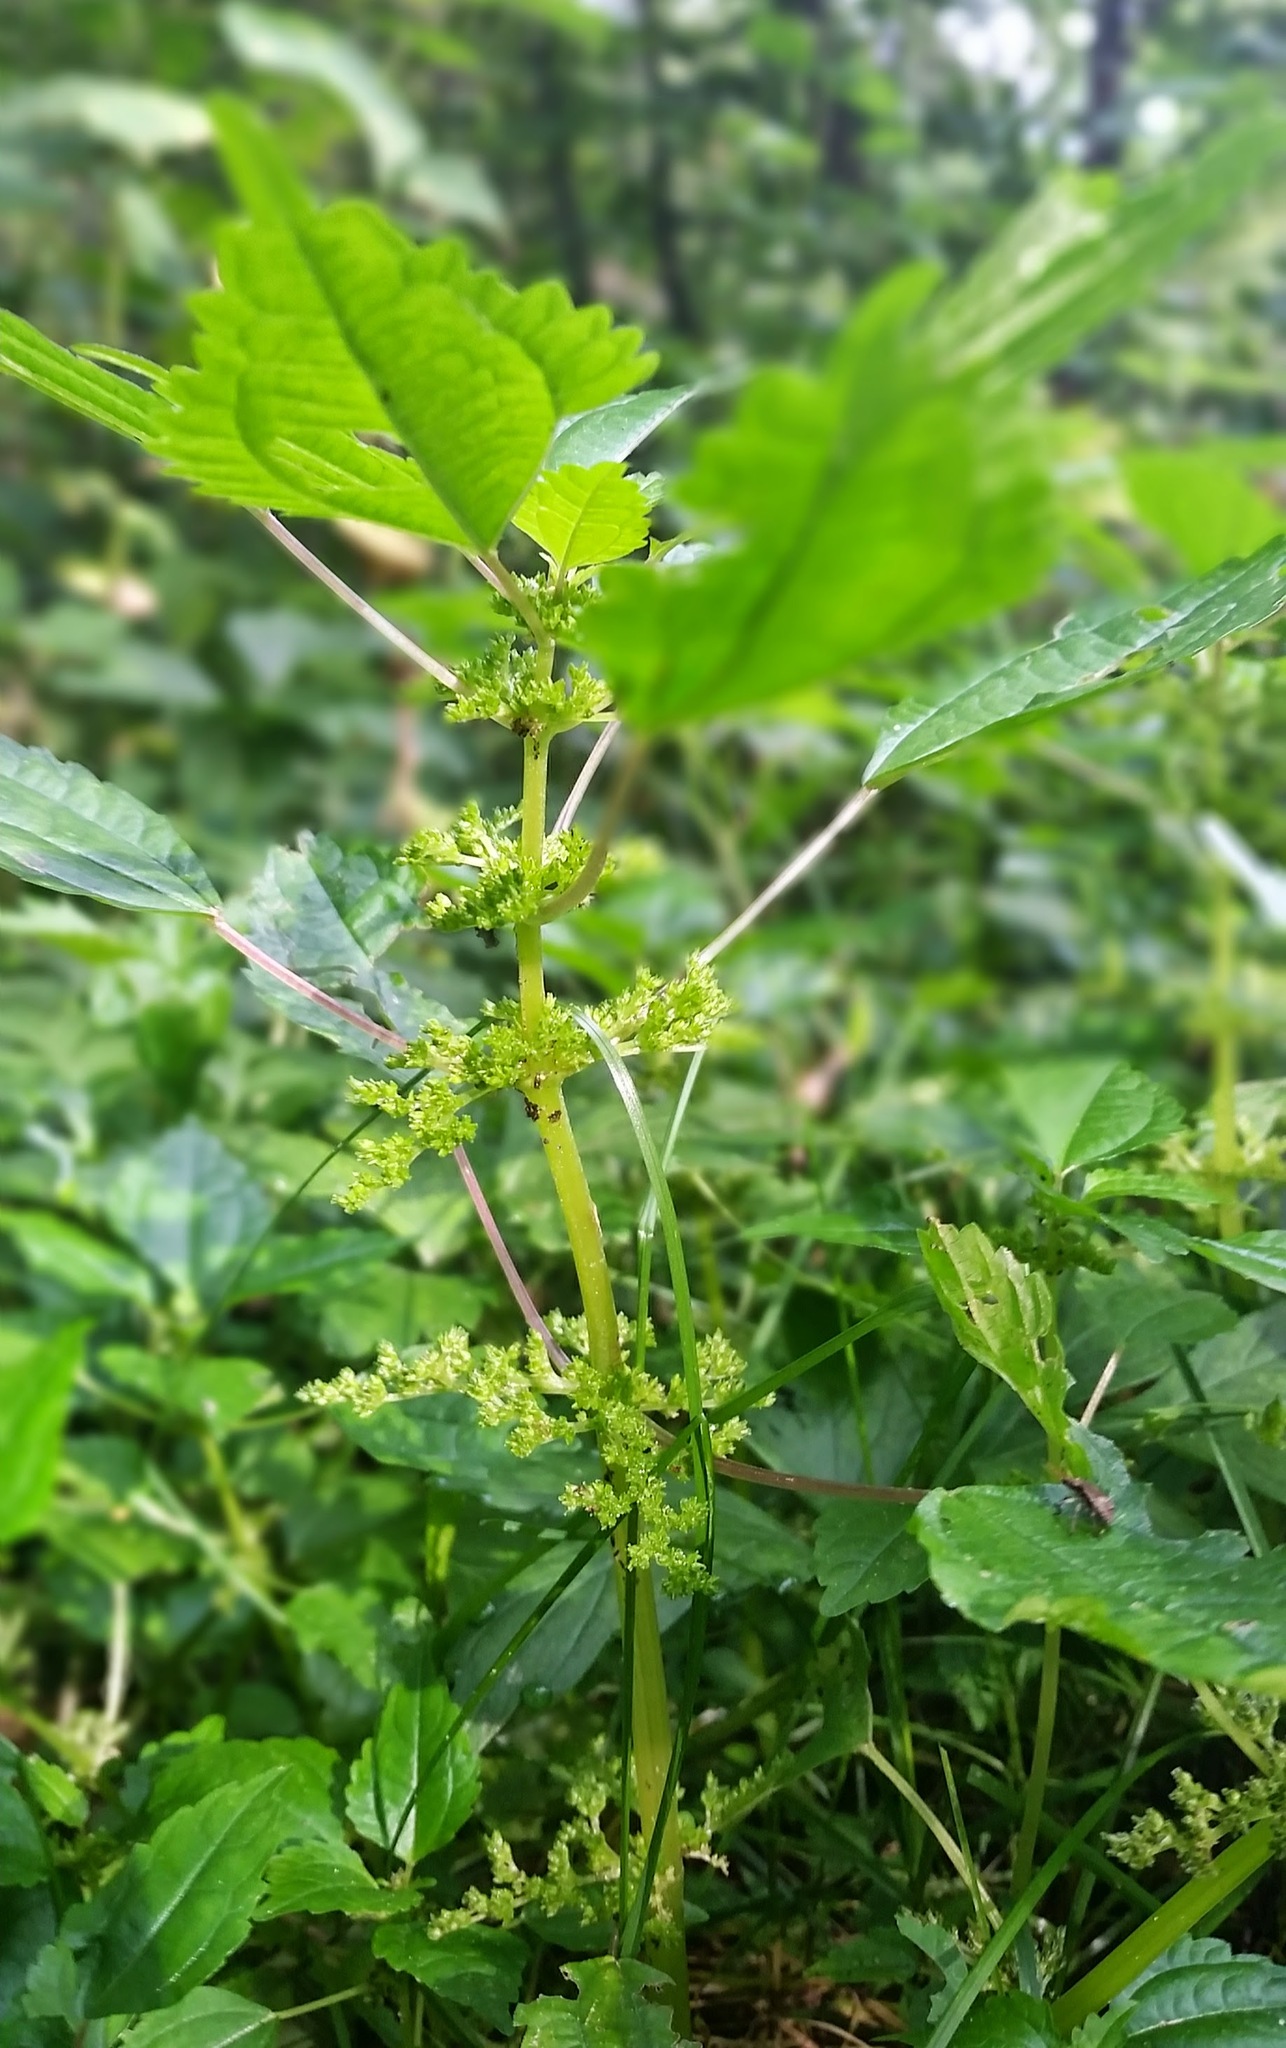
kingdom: Plantae
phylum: Tracheophyta
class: Magnoliopsida
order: Rosales
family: Urticaceae
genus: Pilea
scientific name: Pilea pumila
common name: Clearweed
